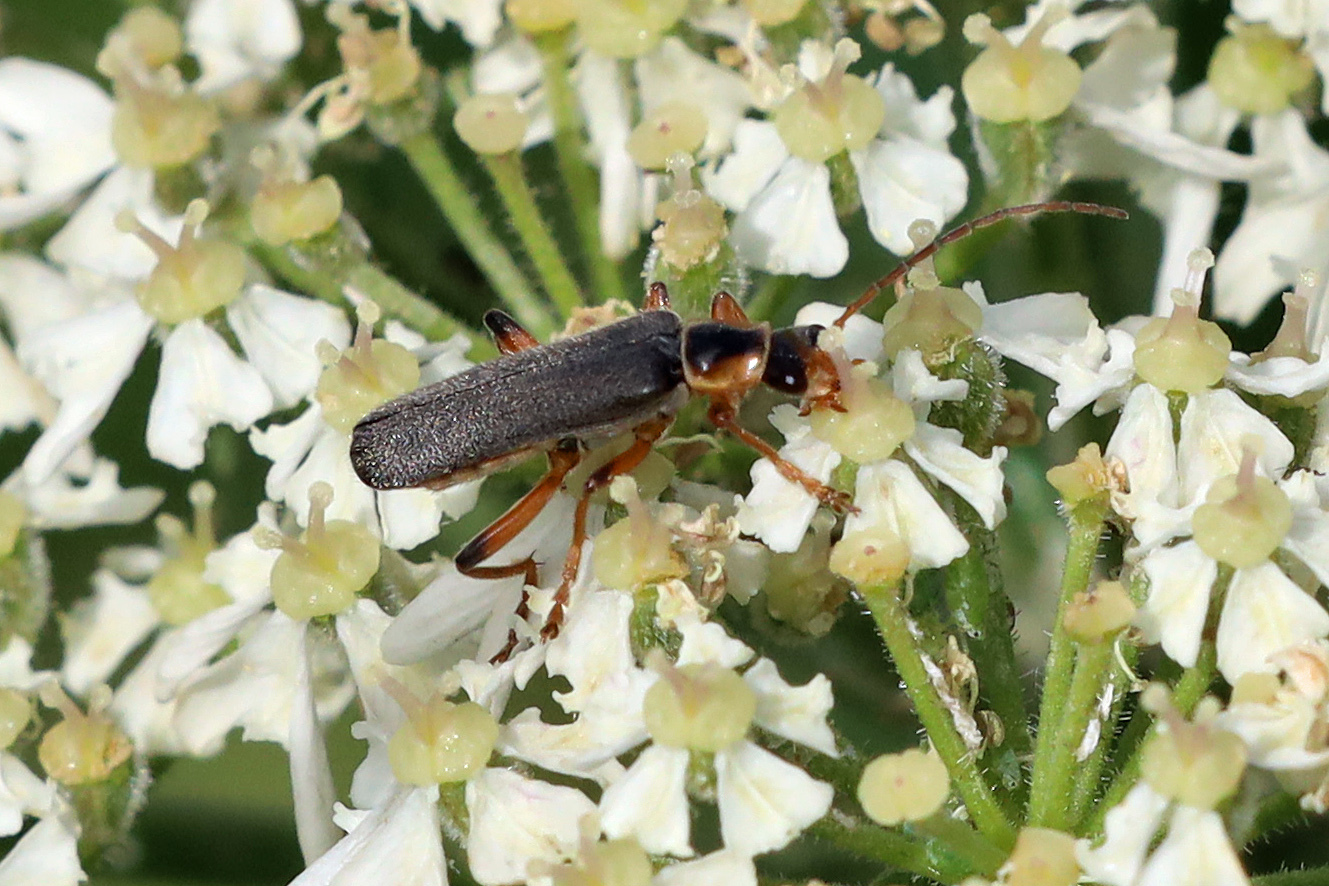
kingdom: Animalia
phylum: Arthropoda
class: Insecta
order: Coleoptera
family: Cantharidae
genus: Cantharis
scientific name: Cantharis nigricans
